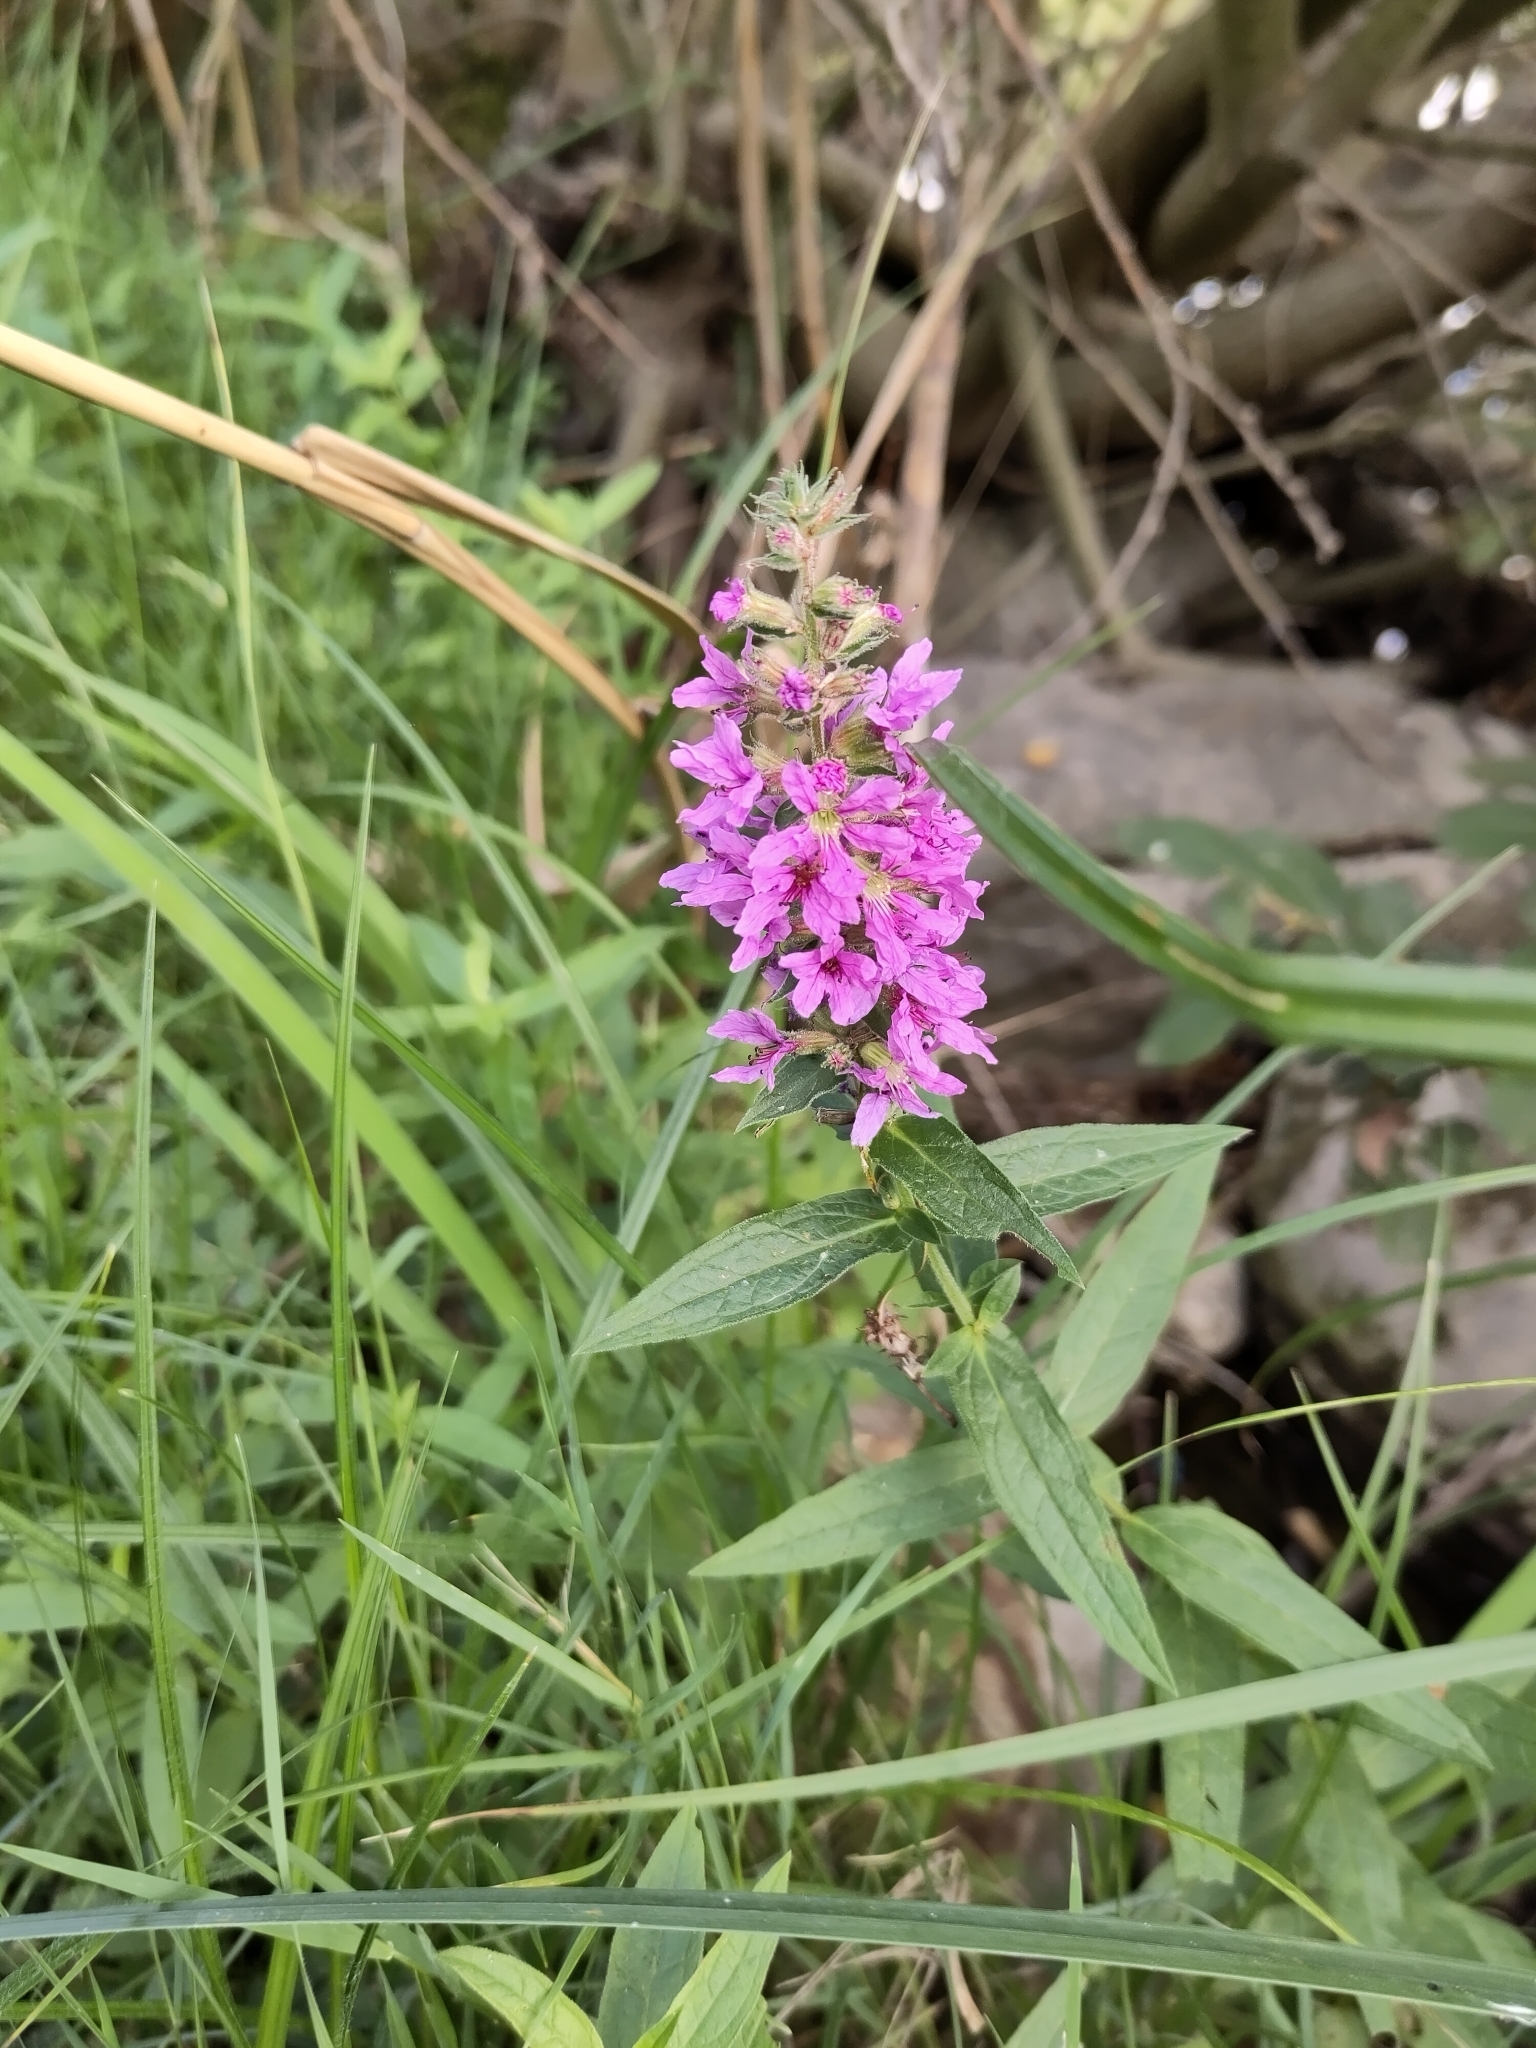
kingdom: Plantae
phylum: Tracheophyta
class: Magnoliopsida
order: Myrtales
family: Lythraceae
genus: Lythrum
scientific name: Lythrum salicaria
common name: Purple loosestrife
